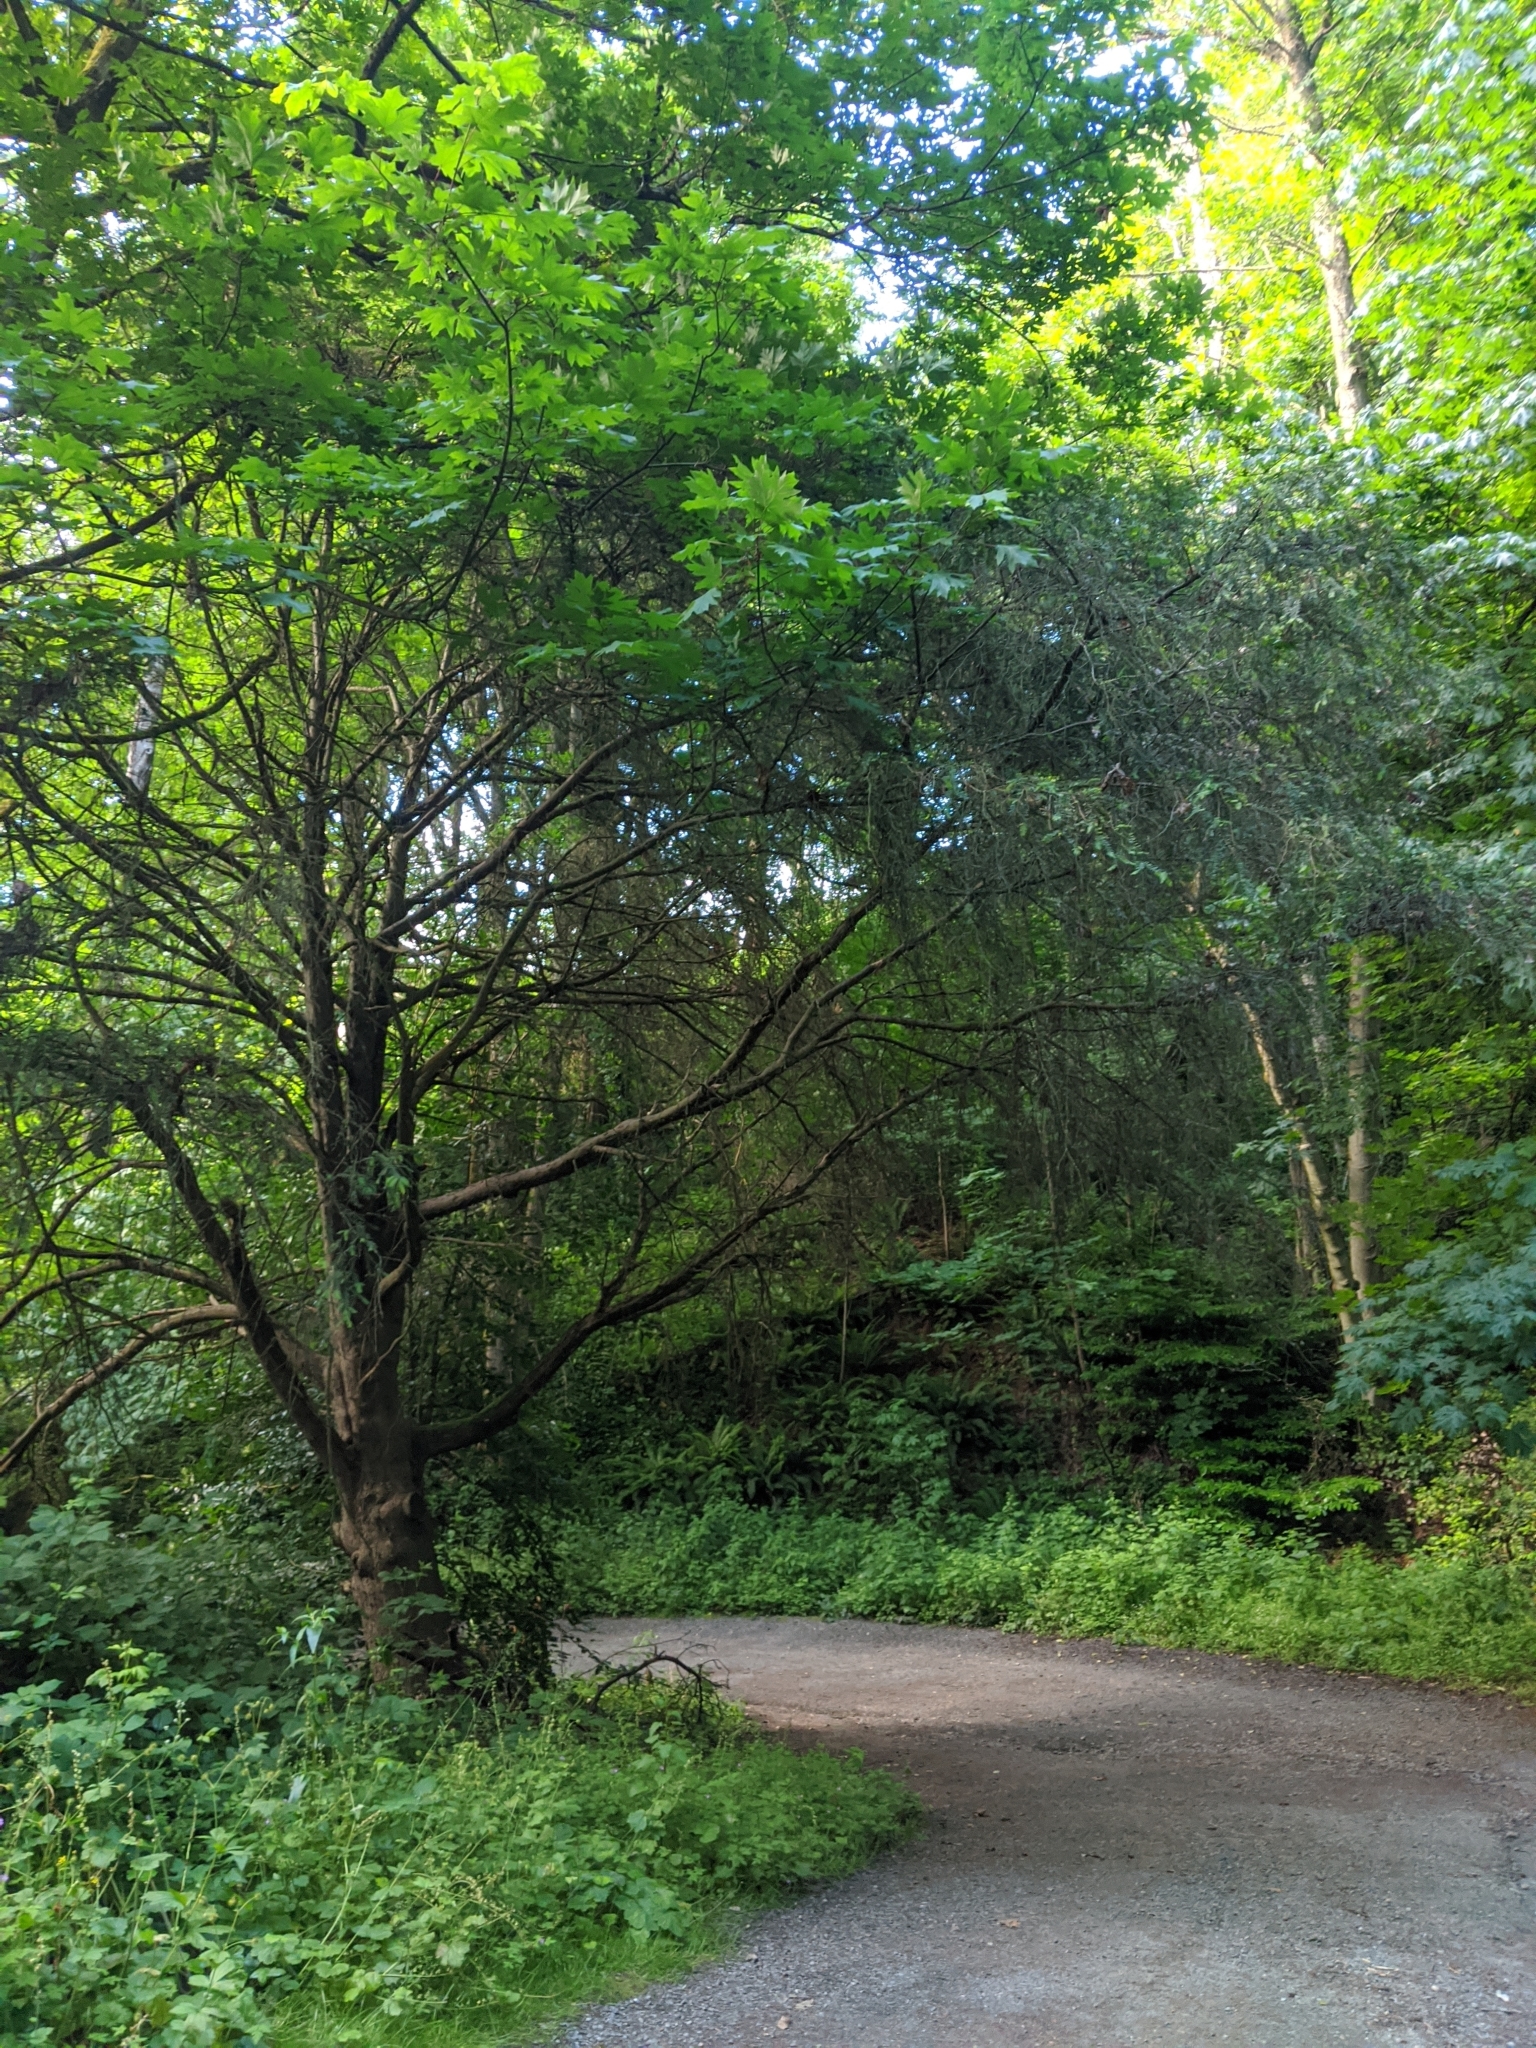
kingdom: Plantae
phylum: Tracheophyta
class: Pinopsida
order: Pinales
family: Taxaceae
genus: Taxus
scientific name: Taxus brevifolia
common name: Pacific yew
